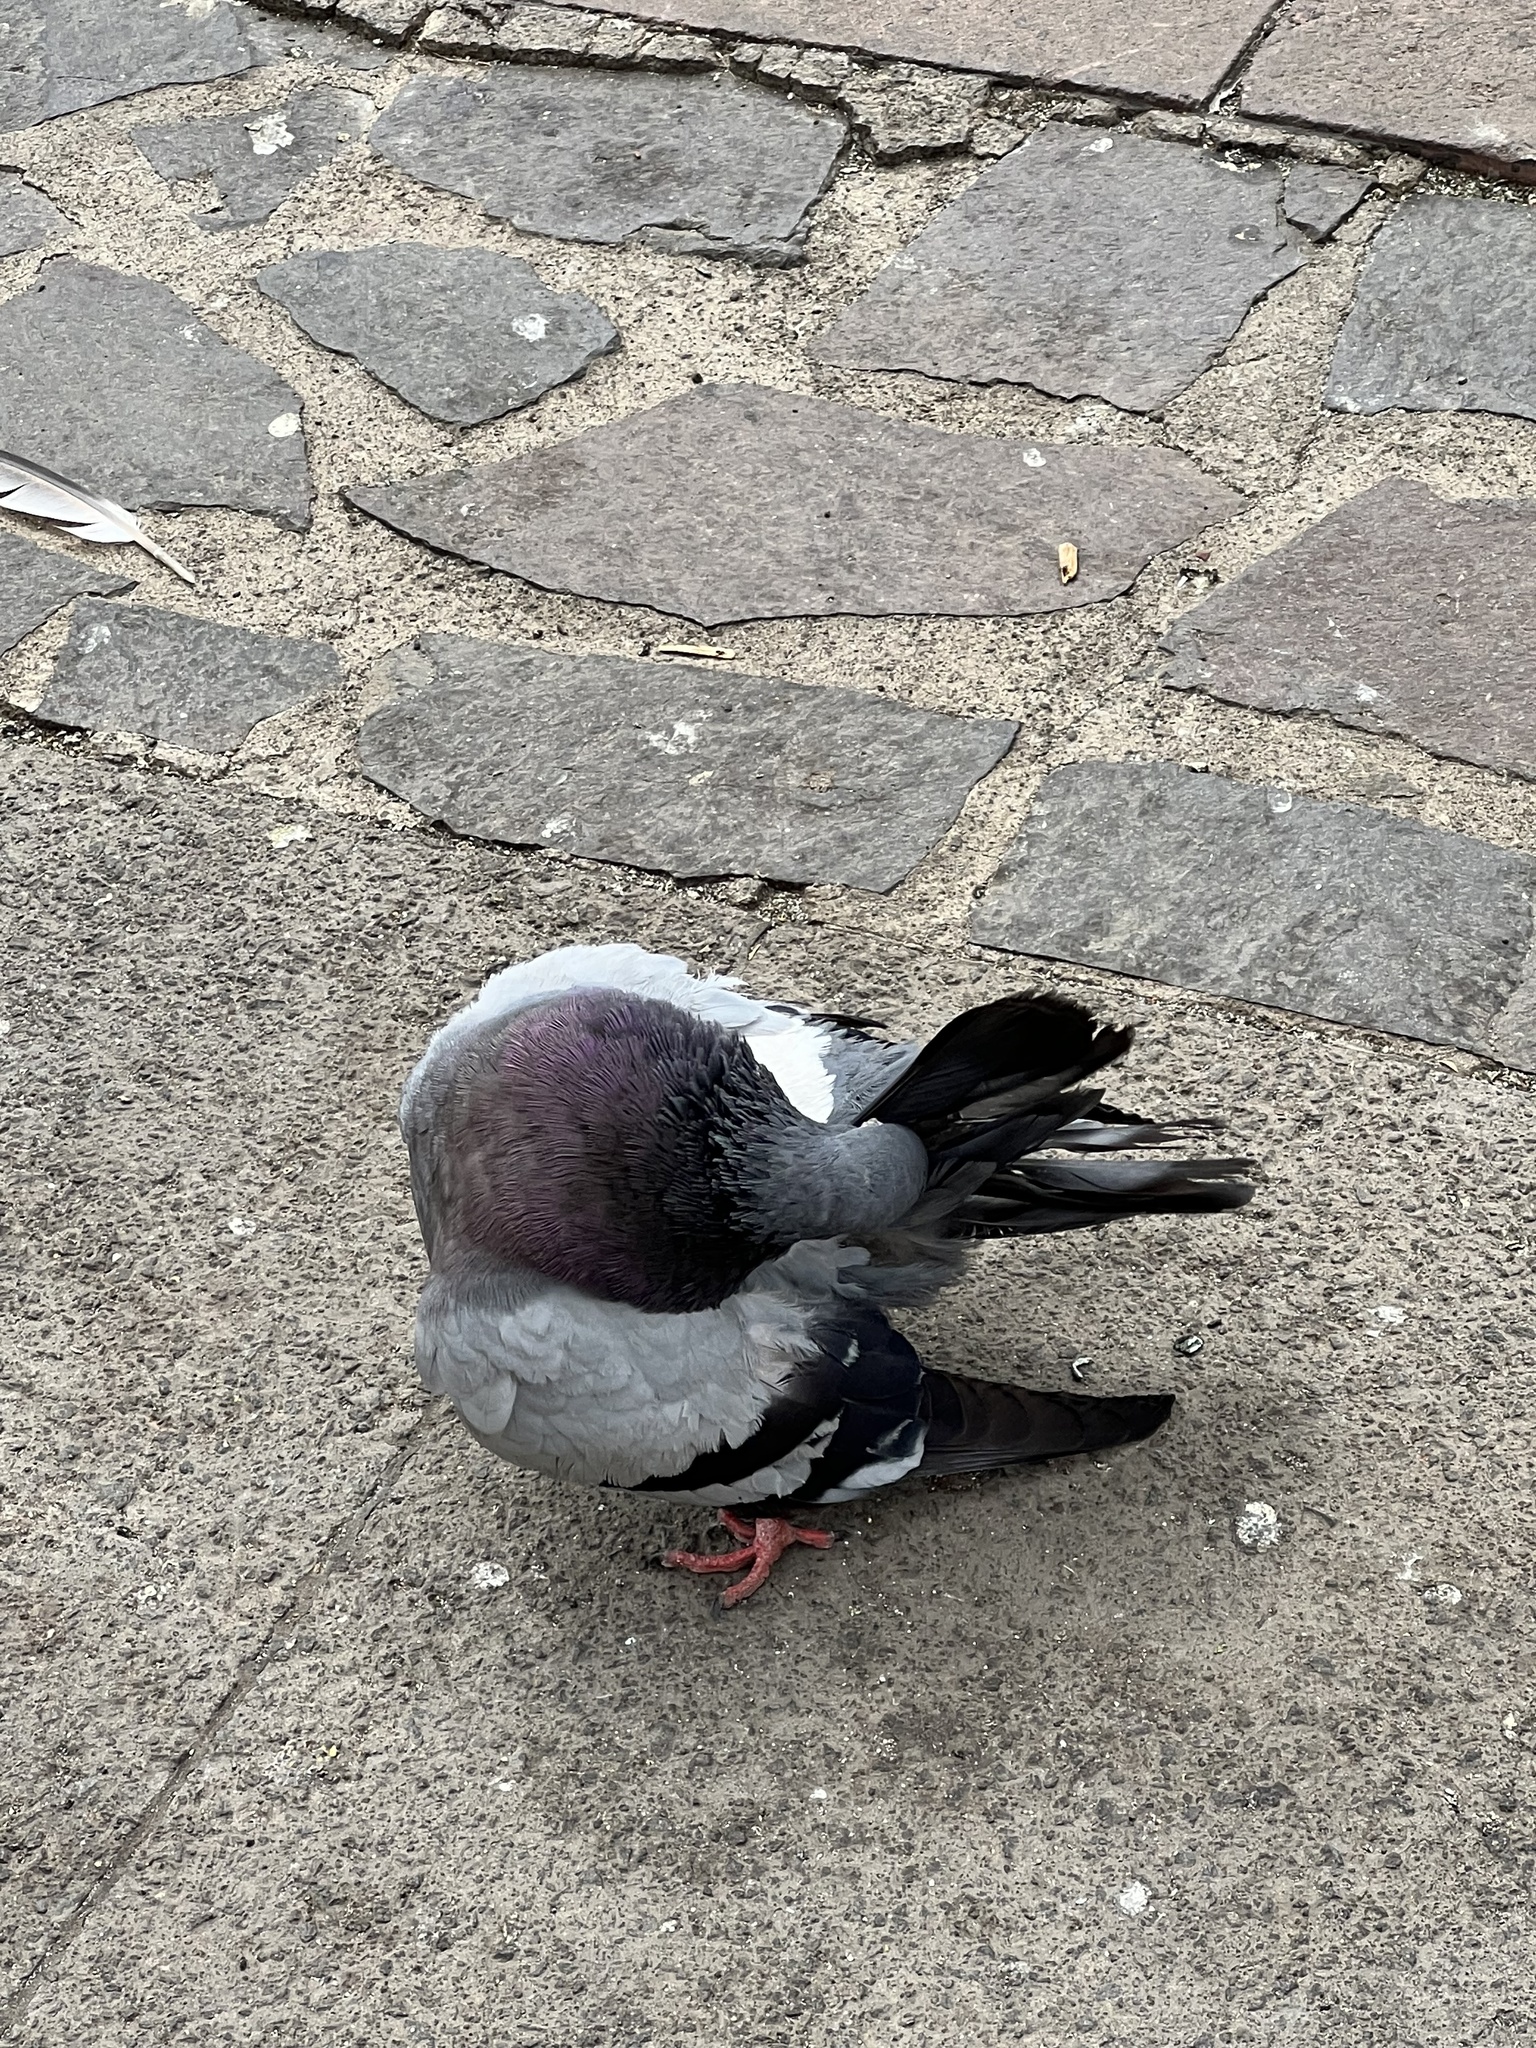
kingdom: Animalia
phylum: Chordata
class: Aves
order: Columbiformes
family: Columbidae
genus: Columba
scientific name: Columba livia
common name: Rock pigeon
